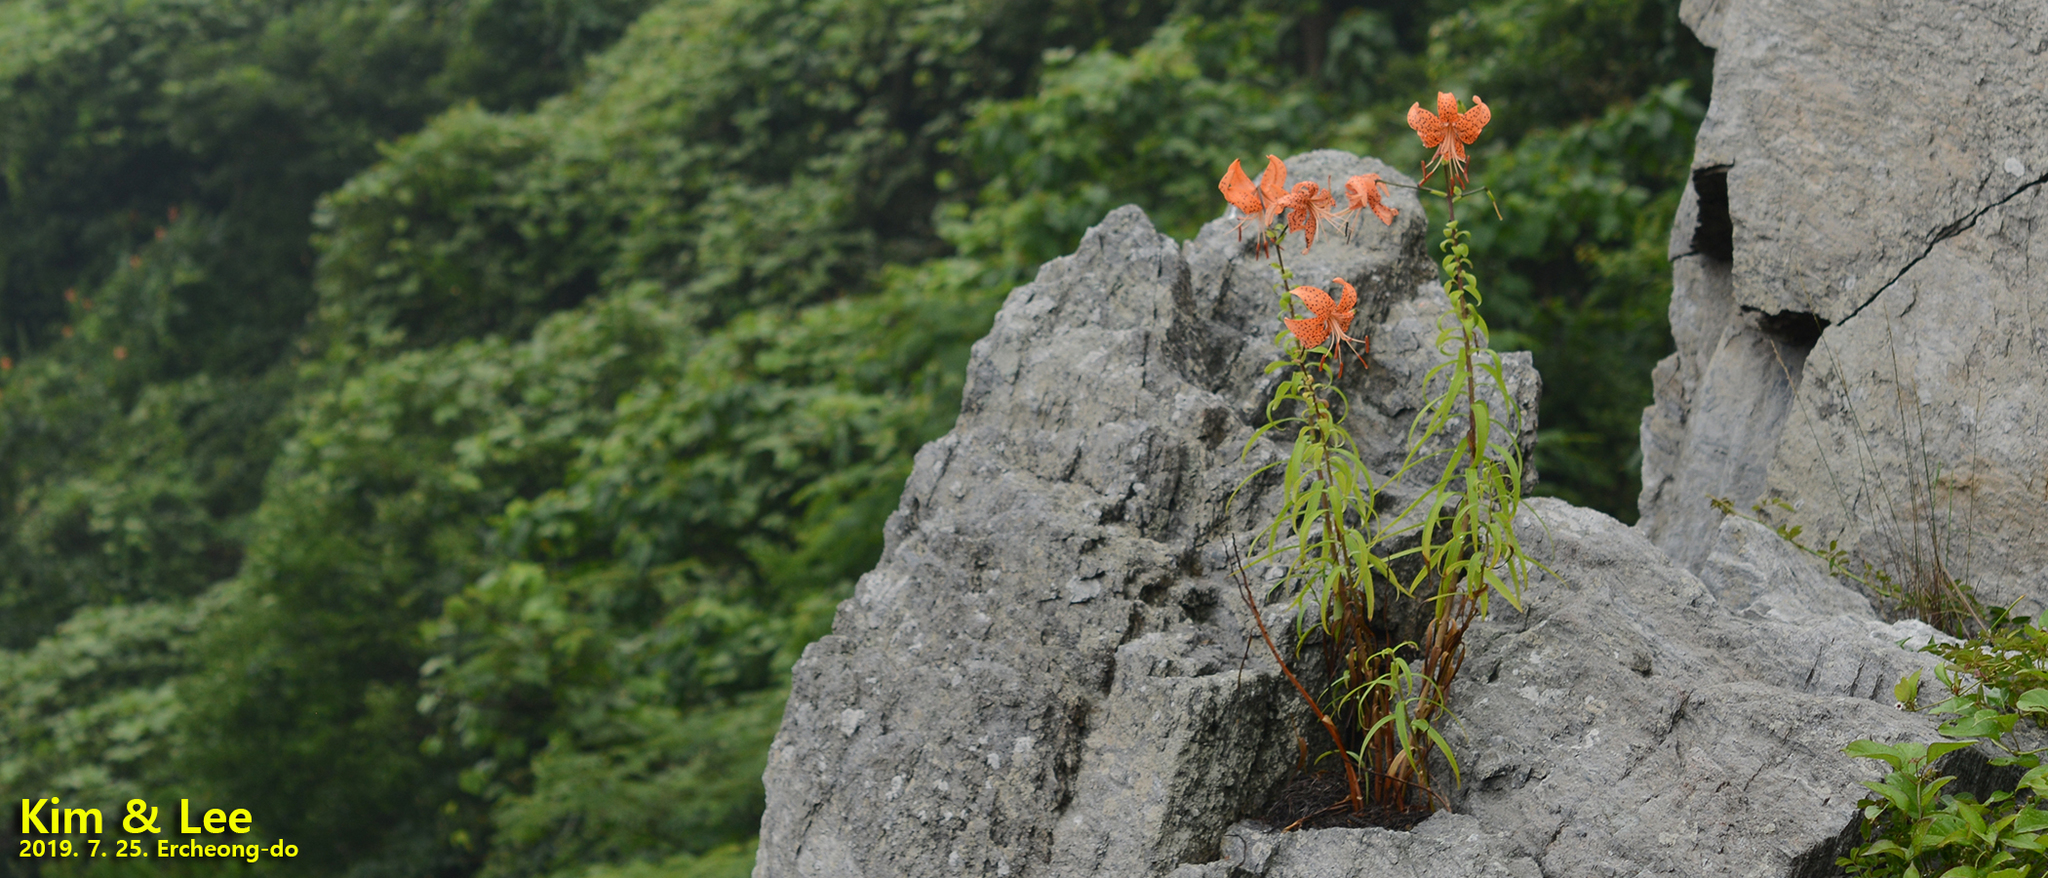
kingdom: Plantae
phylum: Tracheophyta
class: Liliopsida
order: Liliales
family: Liliaceae
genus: Lilium
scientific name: Lilium lancifolium
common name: Tiger lily
